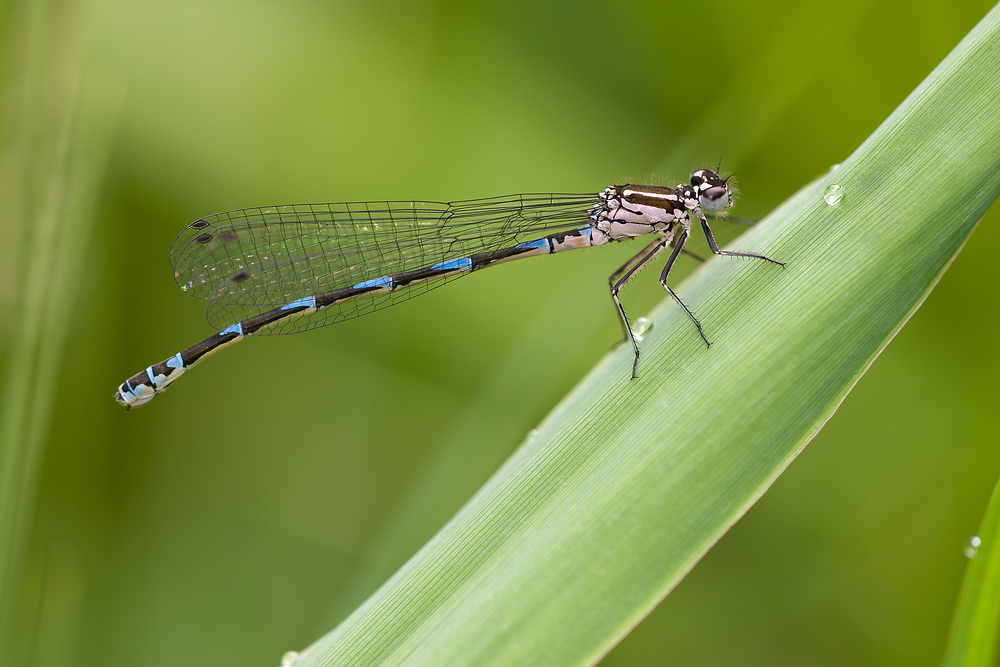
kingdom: Animalia
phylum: Arthropoda
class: Insecta
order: Odonata
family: Coenagrionidae
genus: Coenagrion
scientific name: Coenagrion pulchellum
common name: Variable bluet
